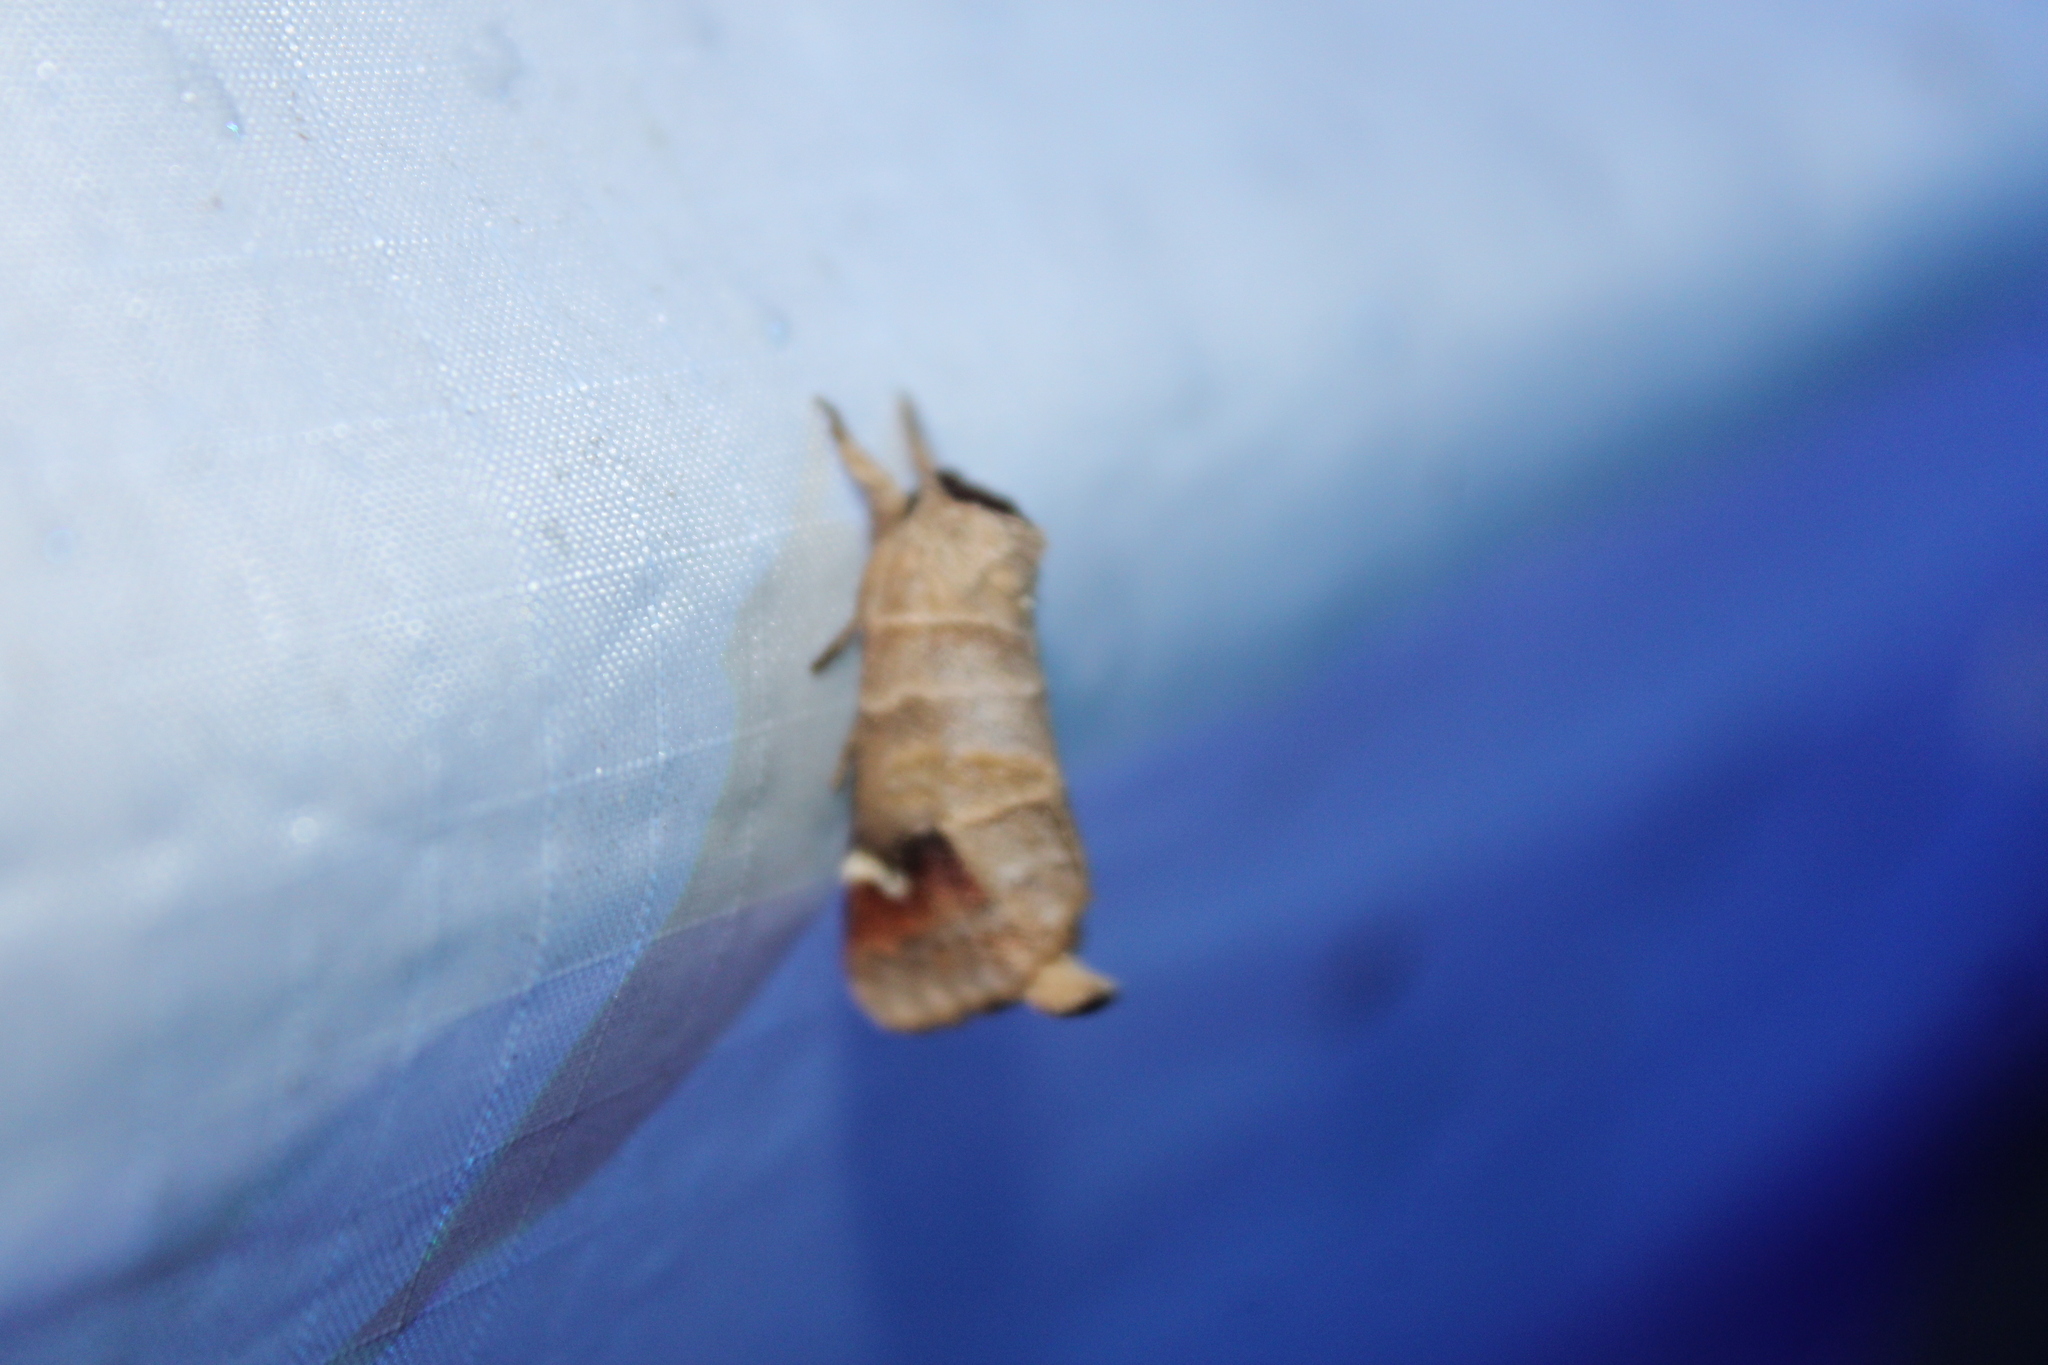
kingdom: Animalia
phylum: Arthropoda
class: Insecta
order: Lepidoptera
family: Notodontidae
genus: Clostera
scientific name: Clostera albosigma
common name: Sigmoid prominent
